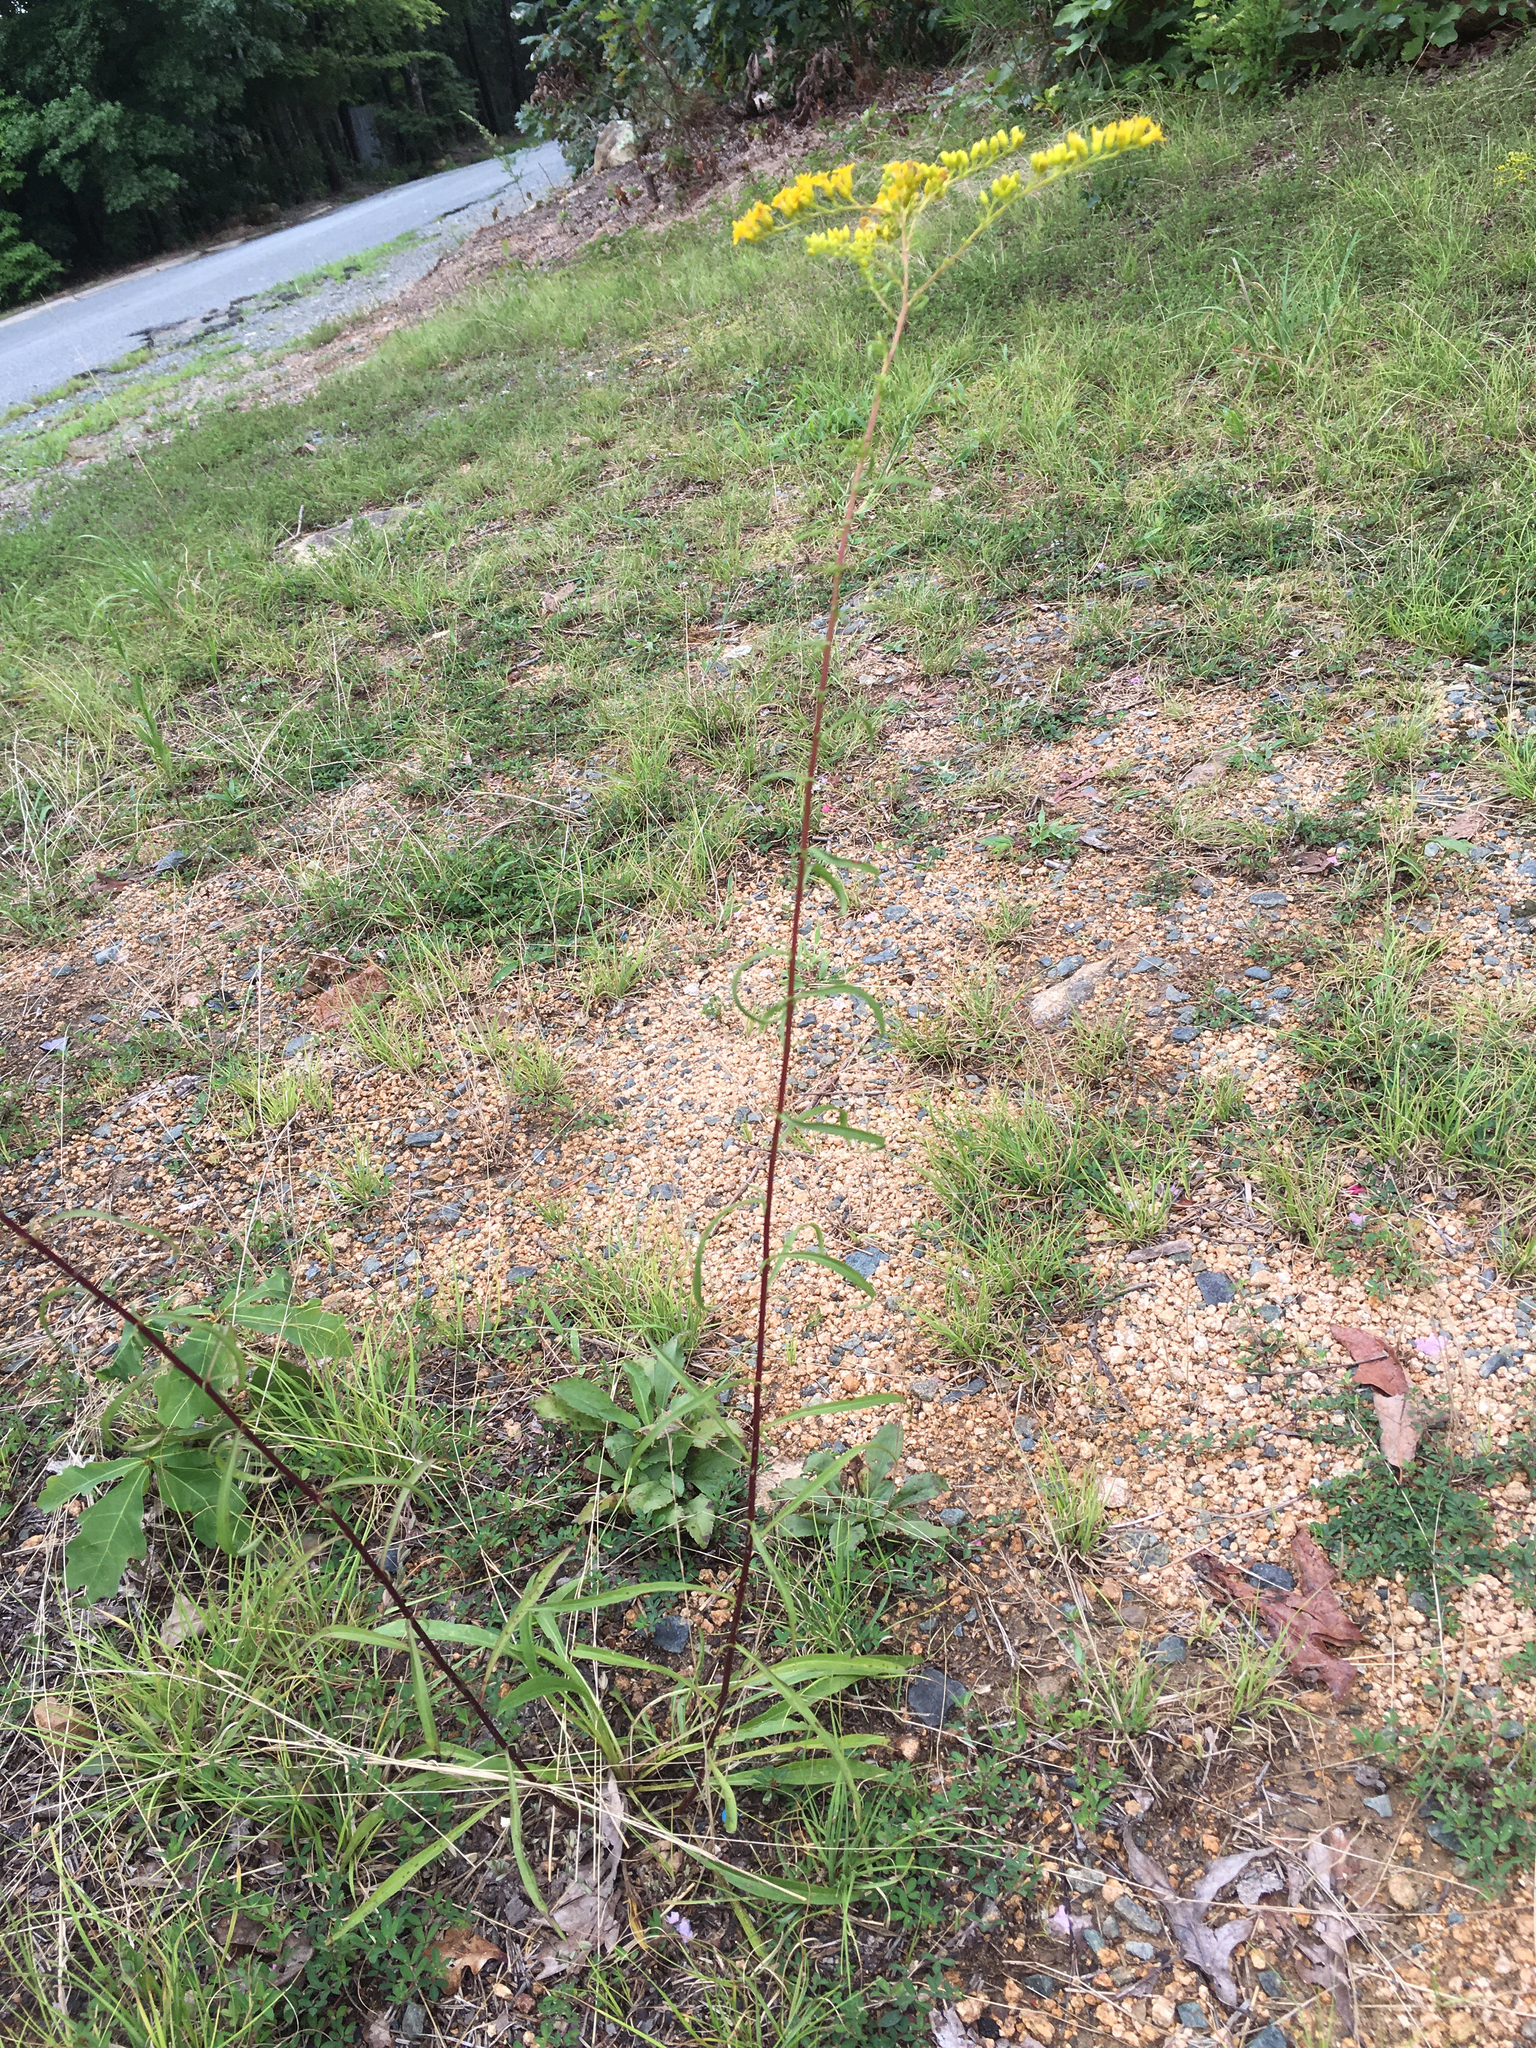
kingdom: Plantae
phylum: Tracheophyta
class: Magnoliopsida
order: Asterales
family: Asteraceae
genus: Solidago
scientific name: Solidago pinetorum
